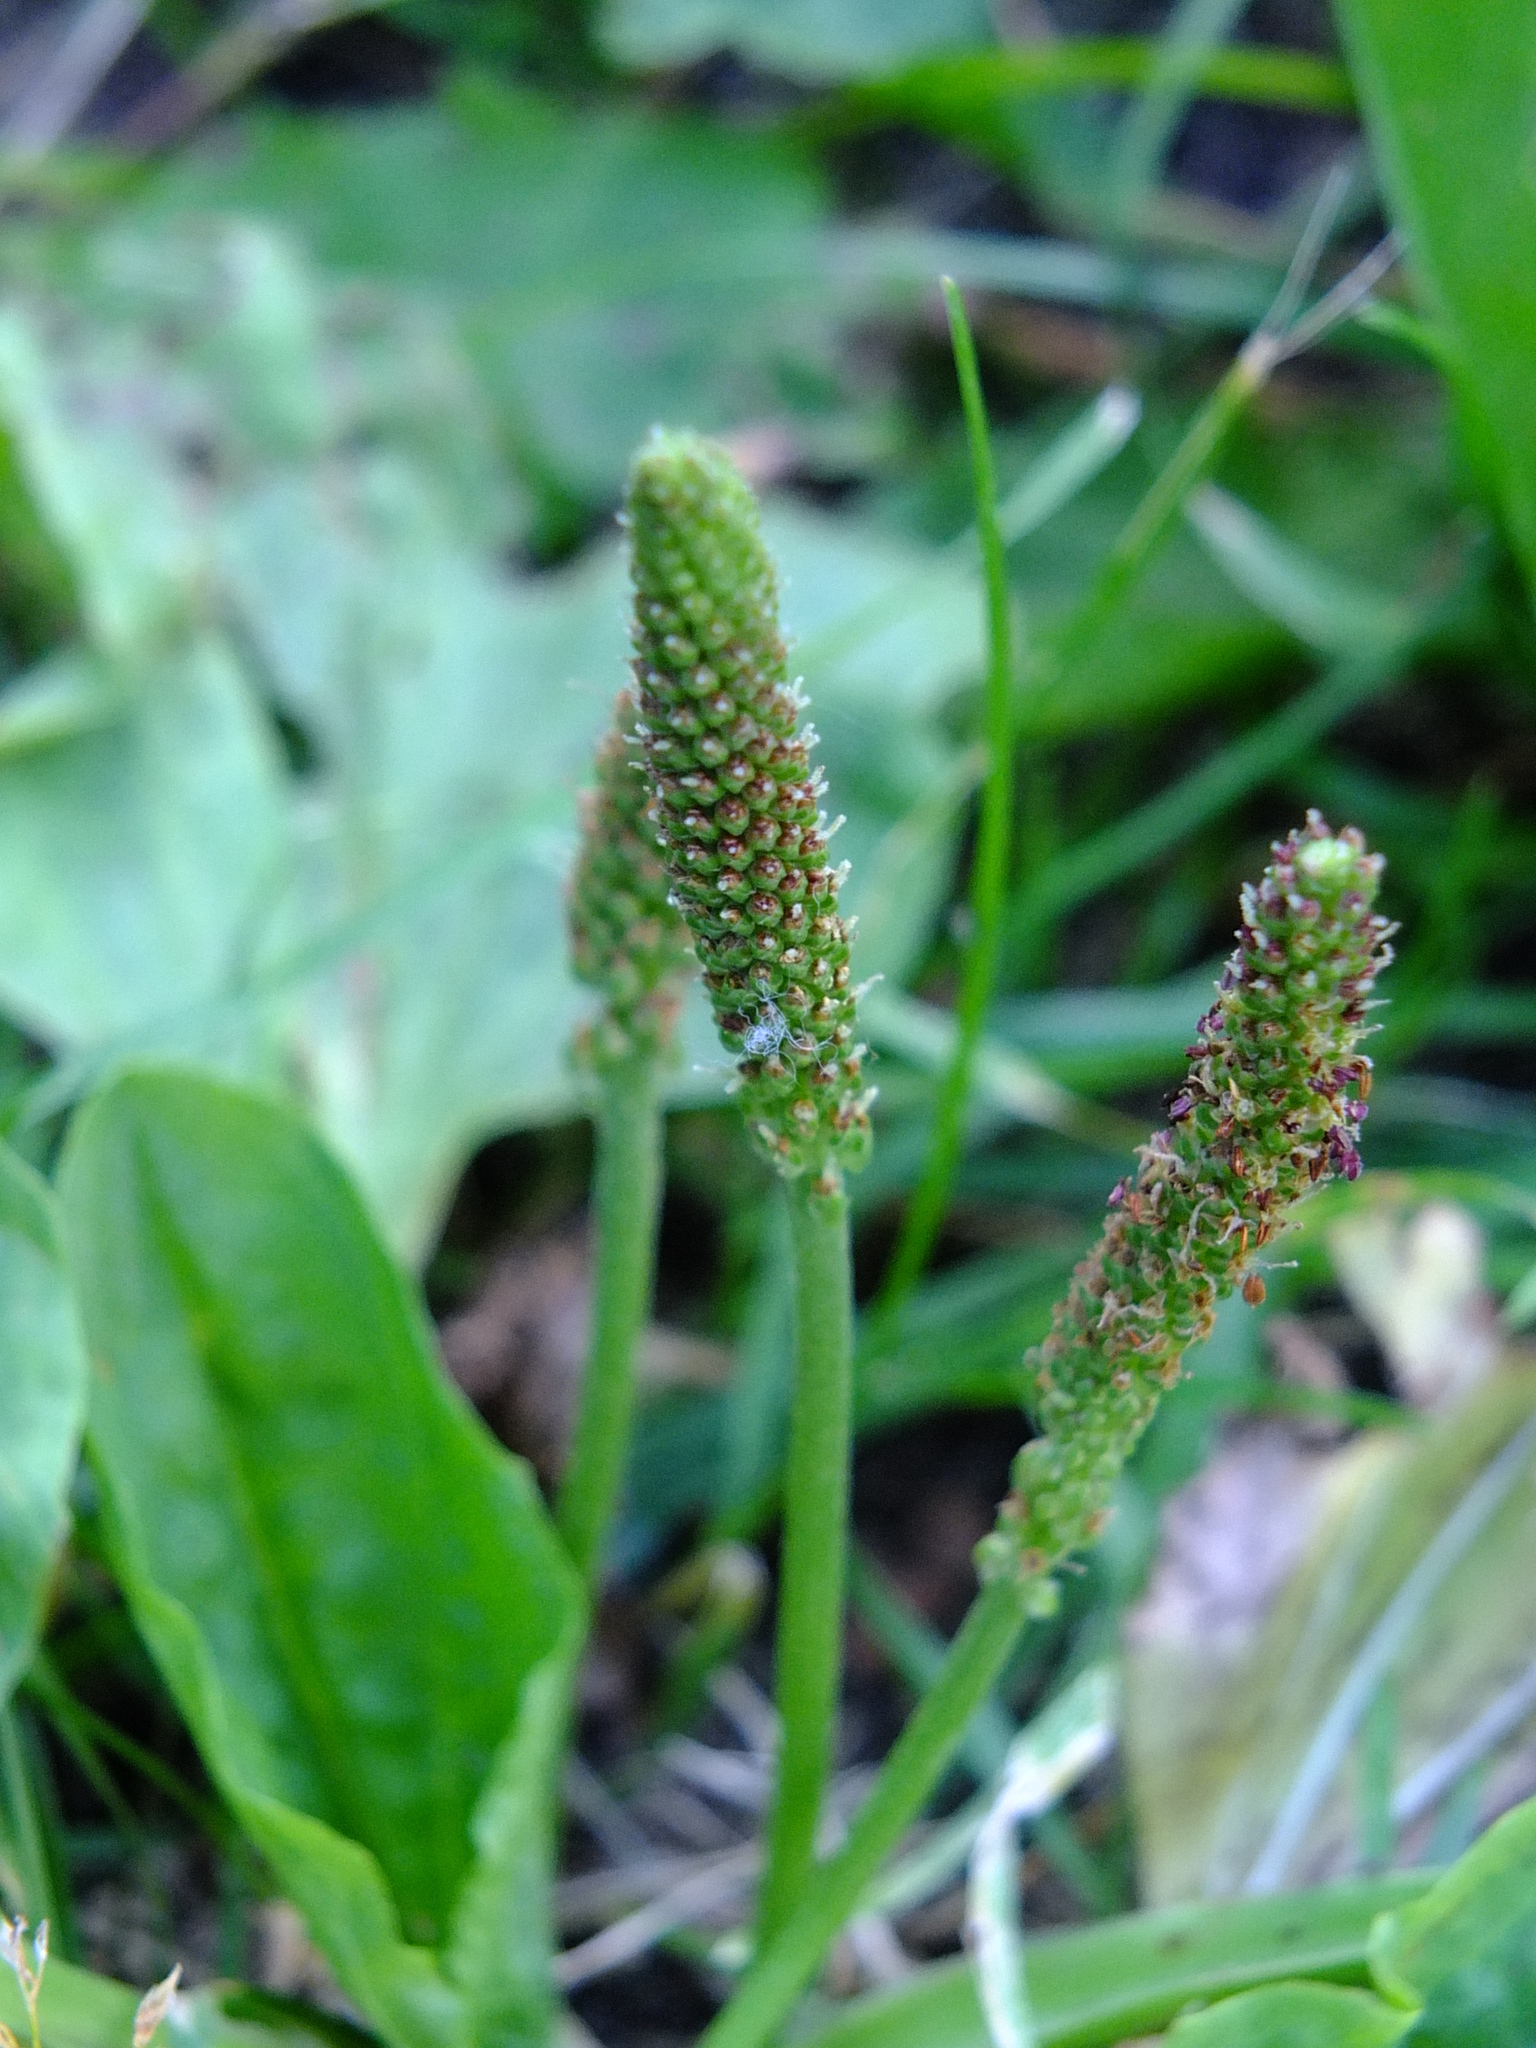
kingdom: Plantae
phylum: Tracheophyta
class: Magnoliopsida
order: Lamiales
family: Plantaginaceae
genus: Plantago
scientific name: Plantago major
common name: Common plantain
